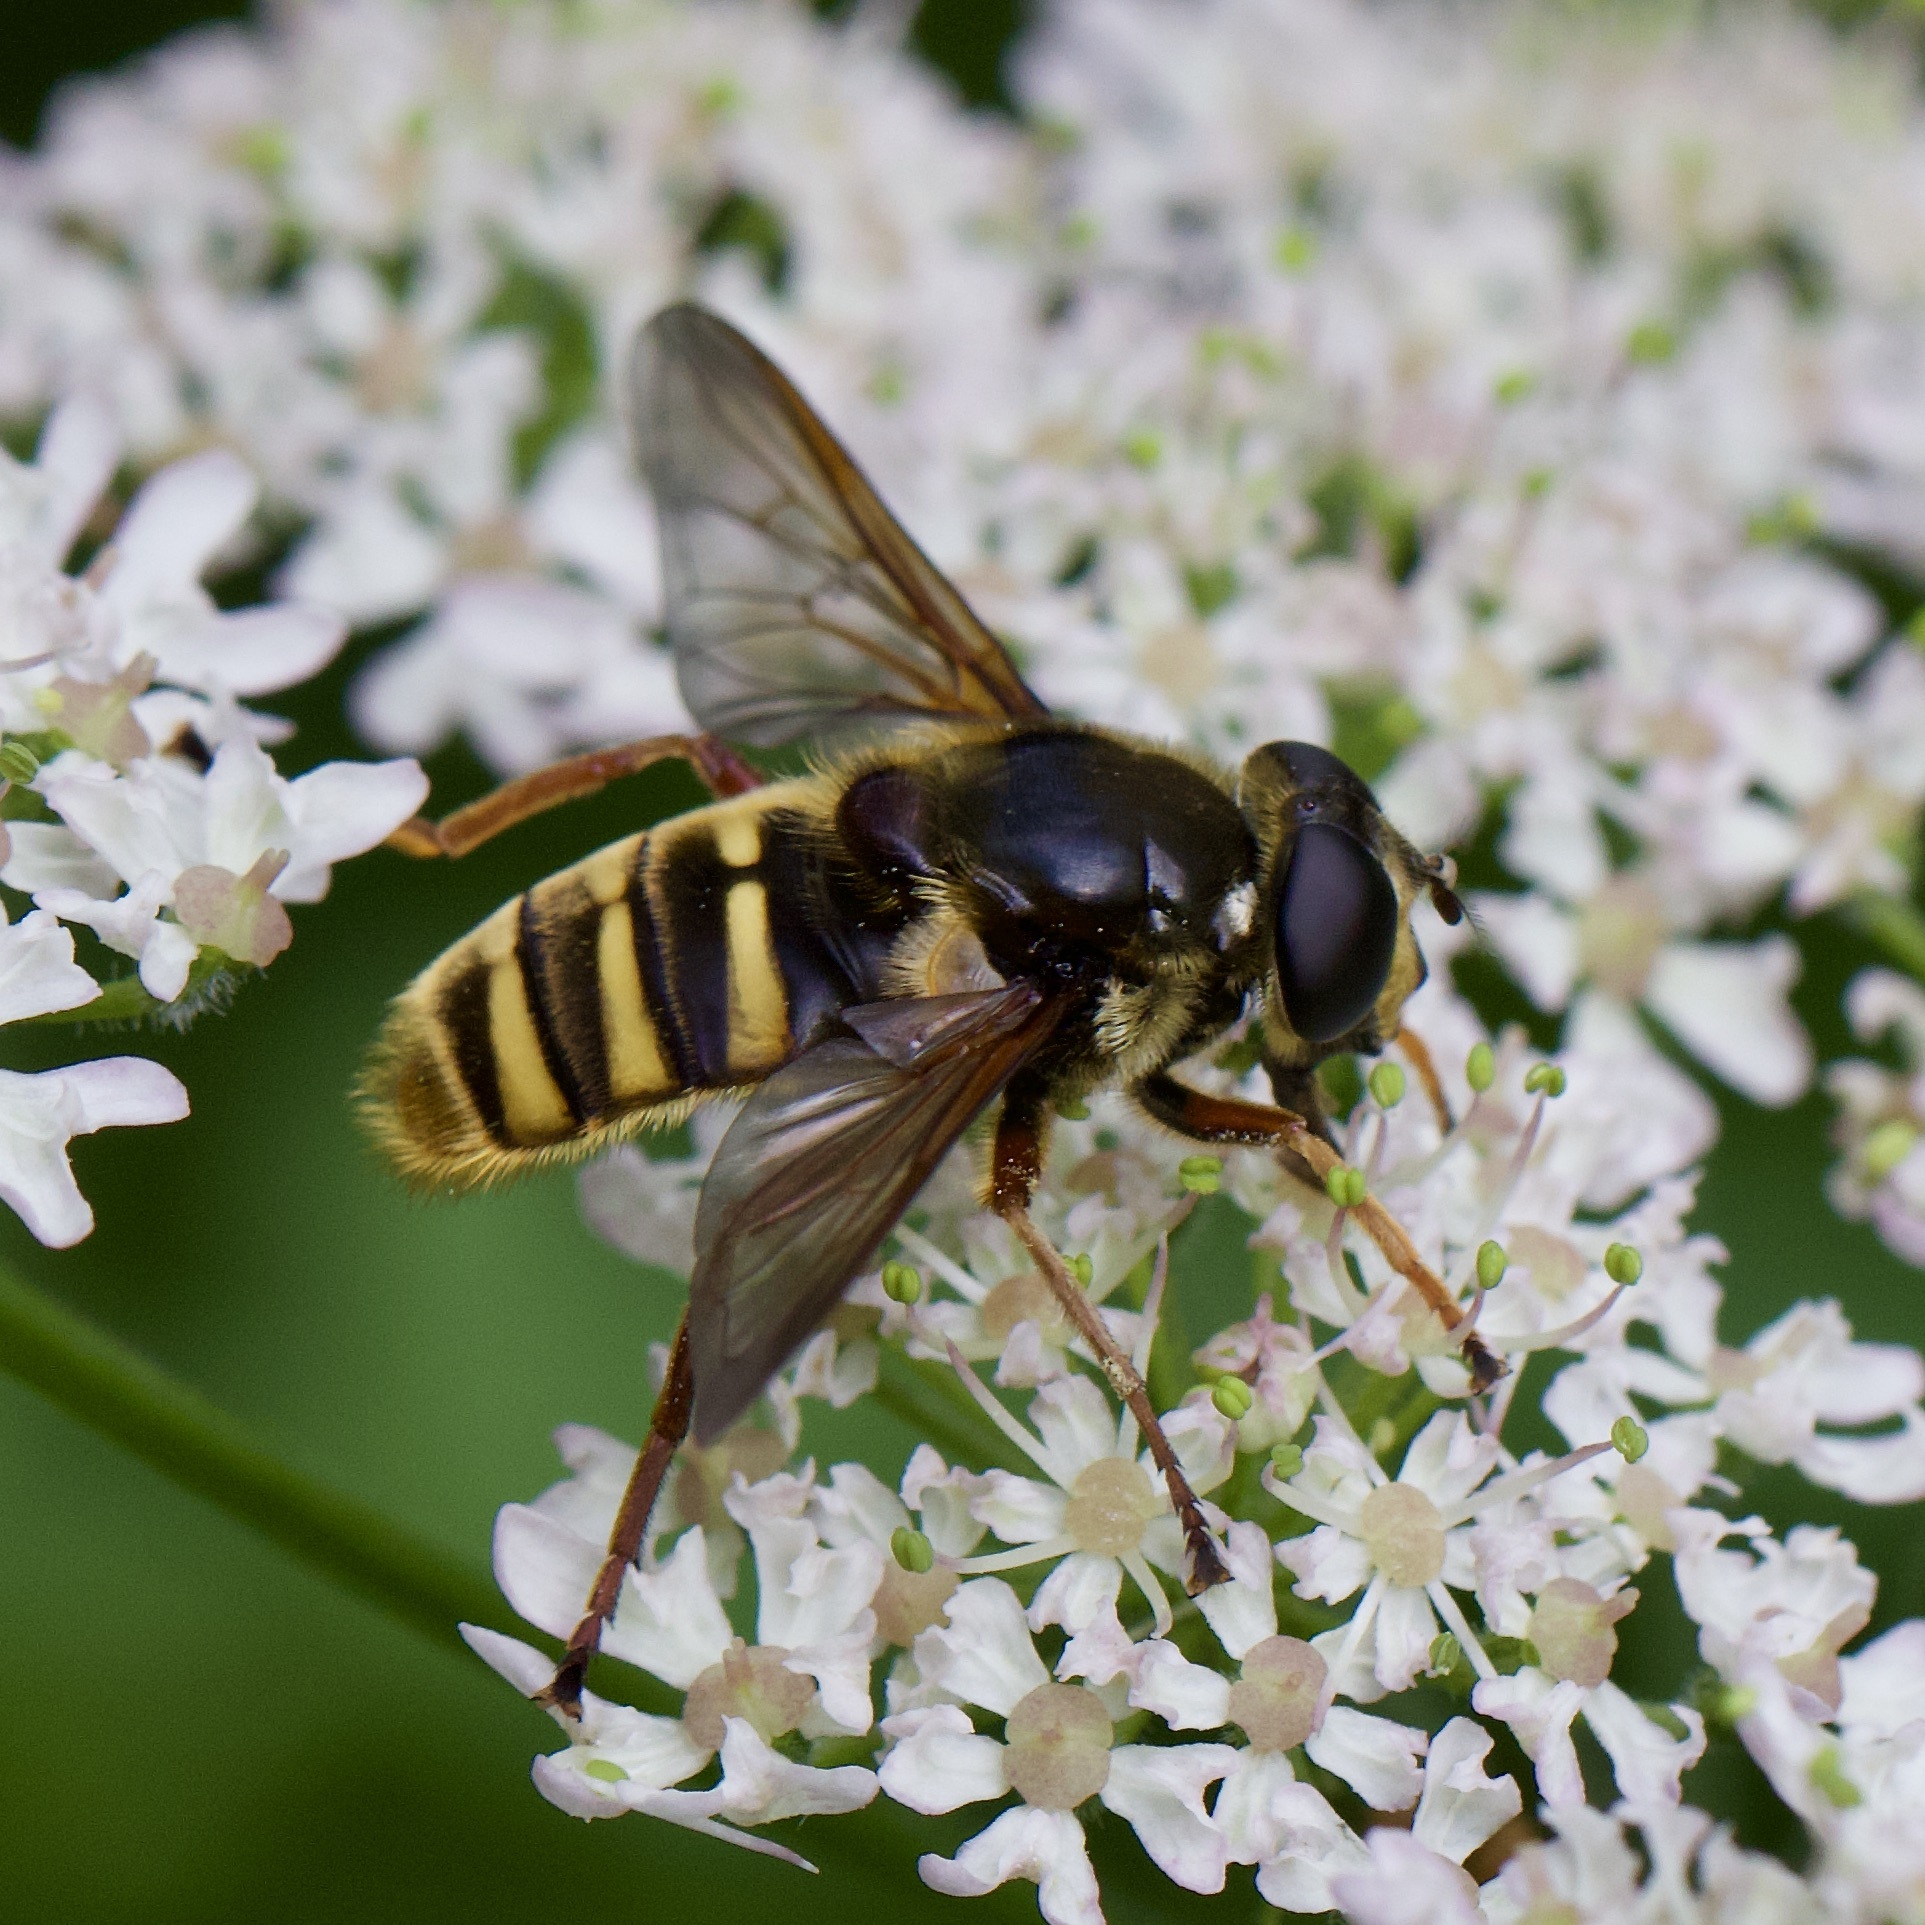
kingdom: Animalia
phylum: Arthropoda
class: Insecta
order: Diptera
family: Syrphidae
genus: Sericomyia
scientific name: Sericomyia silentis
